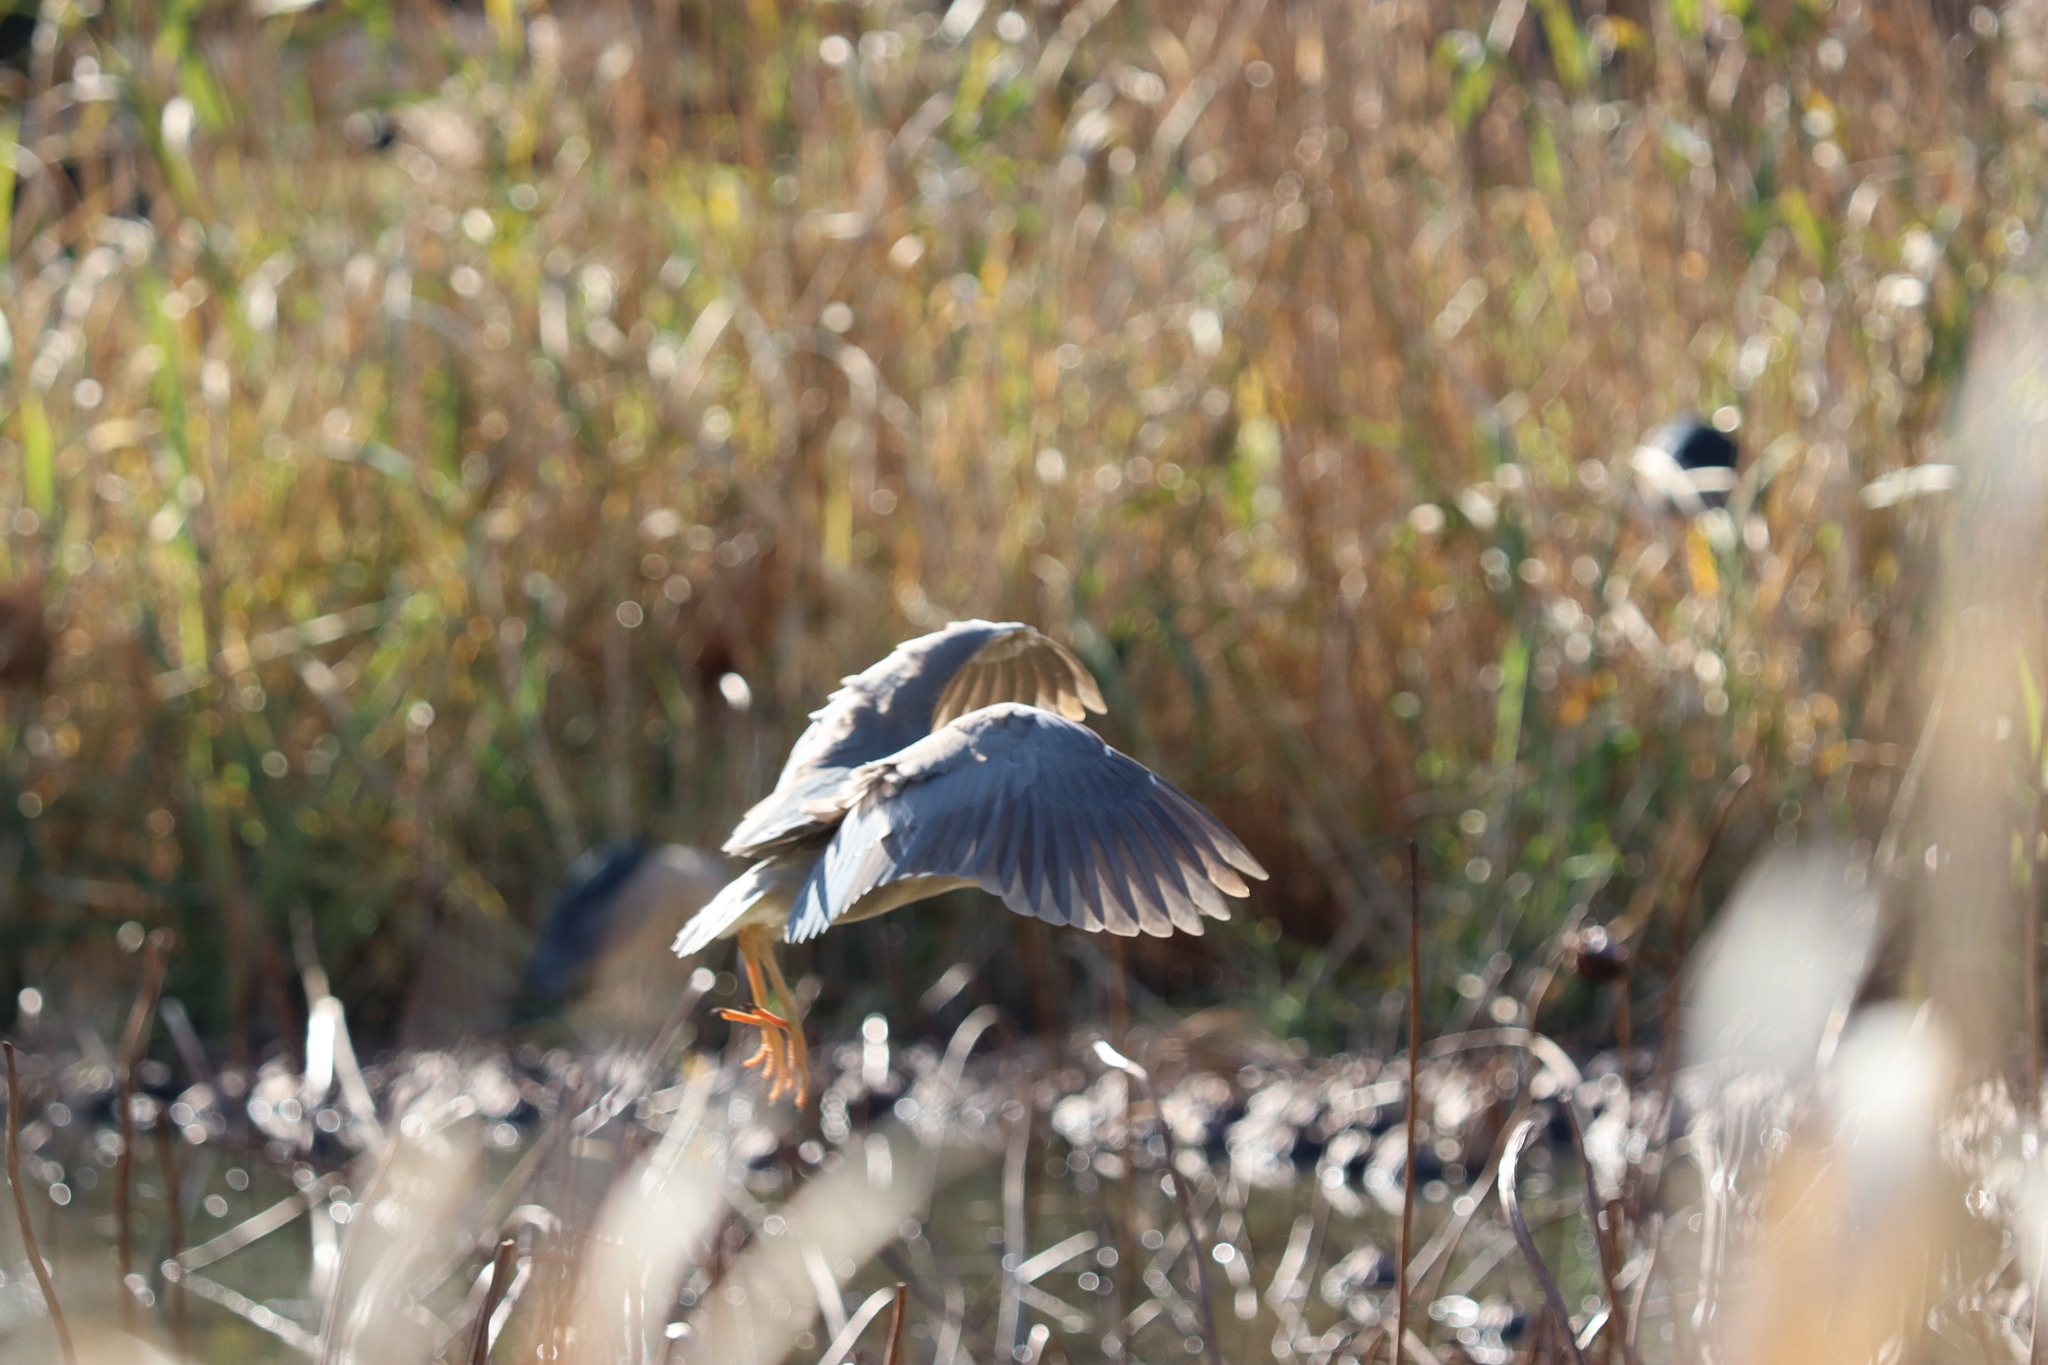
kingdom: Animalia
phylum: Chordata
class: Aves
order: Pelecaniformes
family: Ardeidae
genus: Nycticorax
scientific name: Nycticorax nycticorax
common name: Black-crowned night heron
